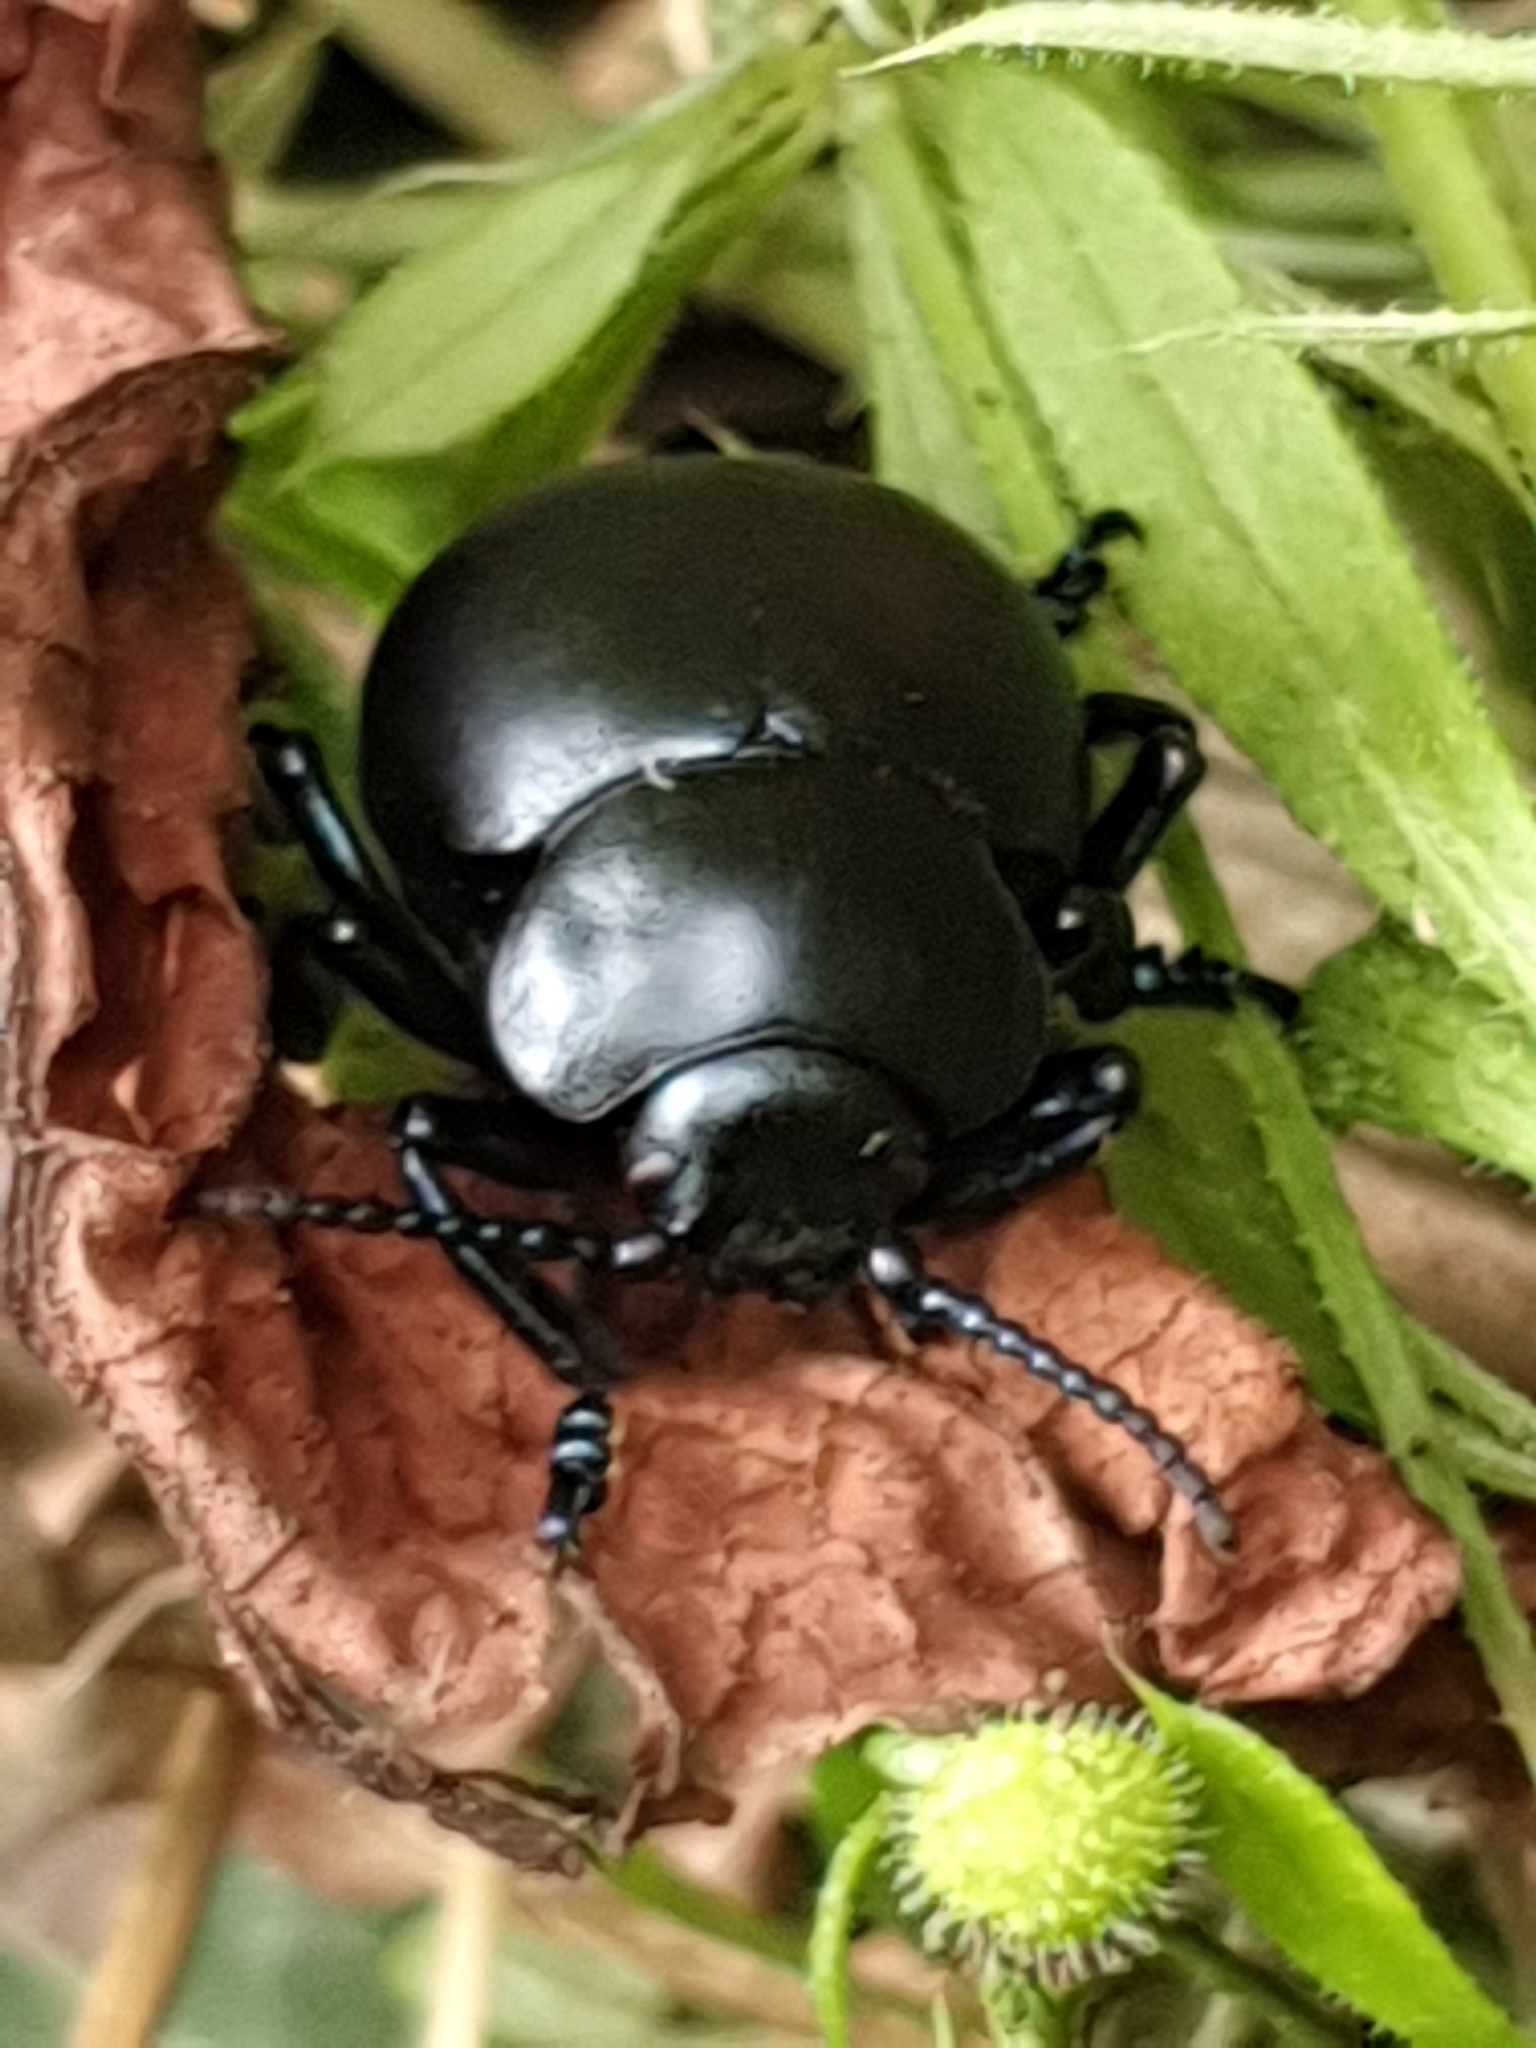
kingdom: Animalia
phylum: Arthropoda
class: Insecta
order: Coleoptera
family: Chrysomelidae
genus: Timarcha
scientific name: Timarcha tenebricosa
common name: Bloody-nosed beetle
